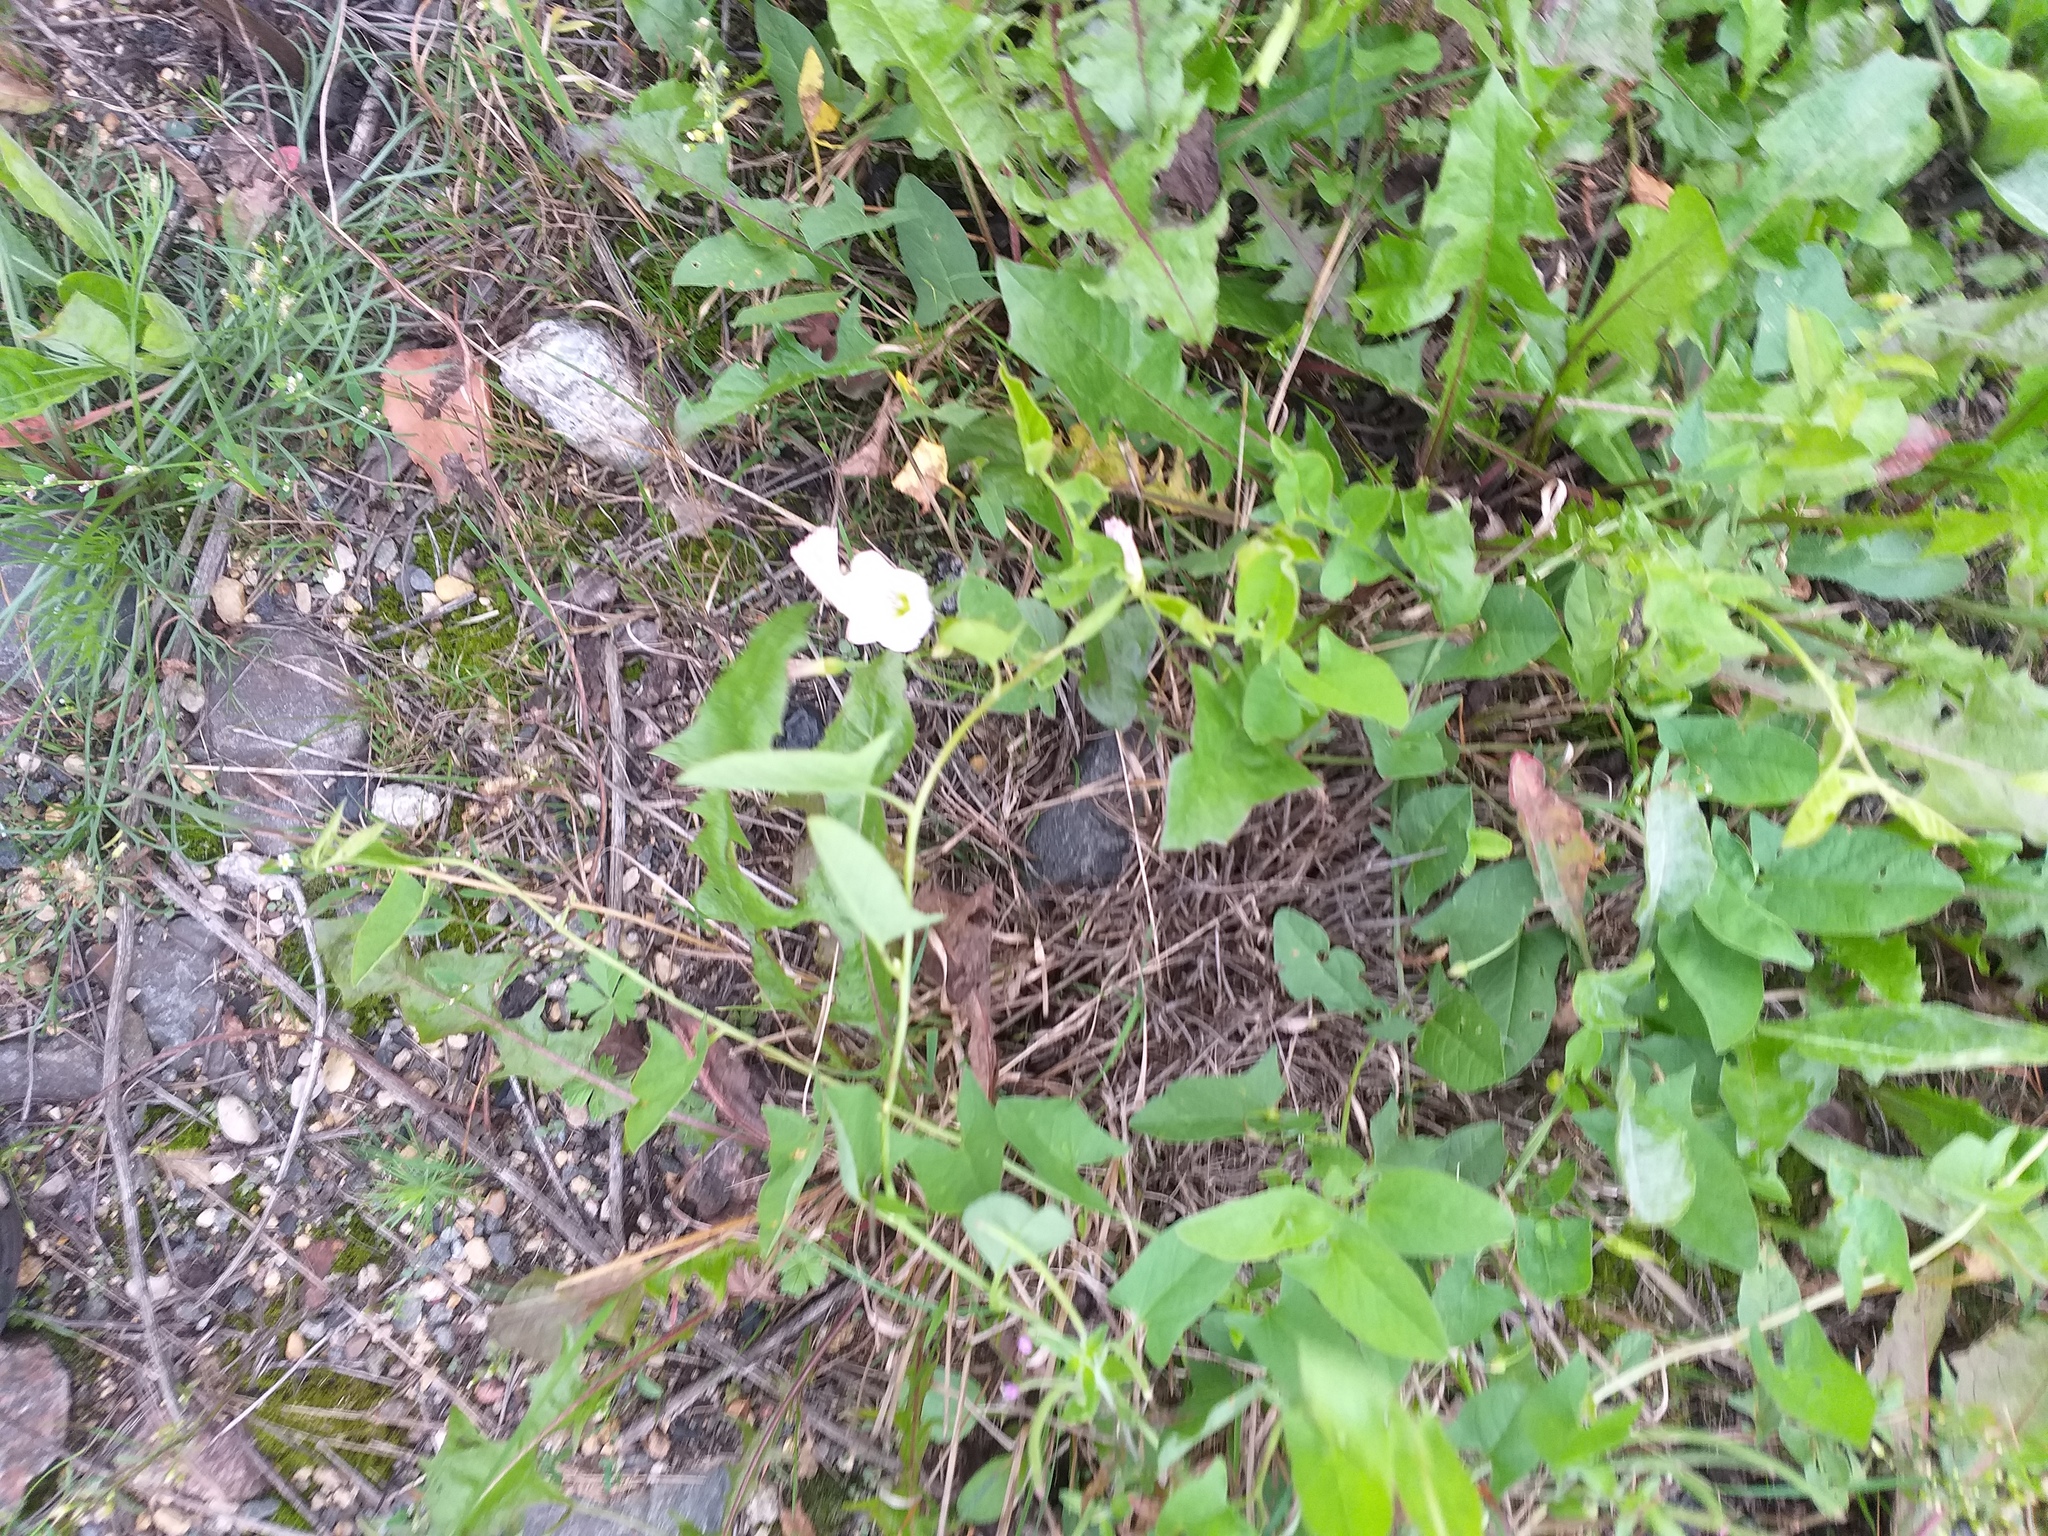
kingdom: Plantae
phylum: Tracheophyta
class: Magnoliopsida
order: Solanales
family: Convolvulaceae
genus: Convolvulus
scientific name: Convolvulus arvensis
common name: Field bindweed
